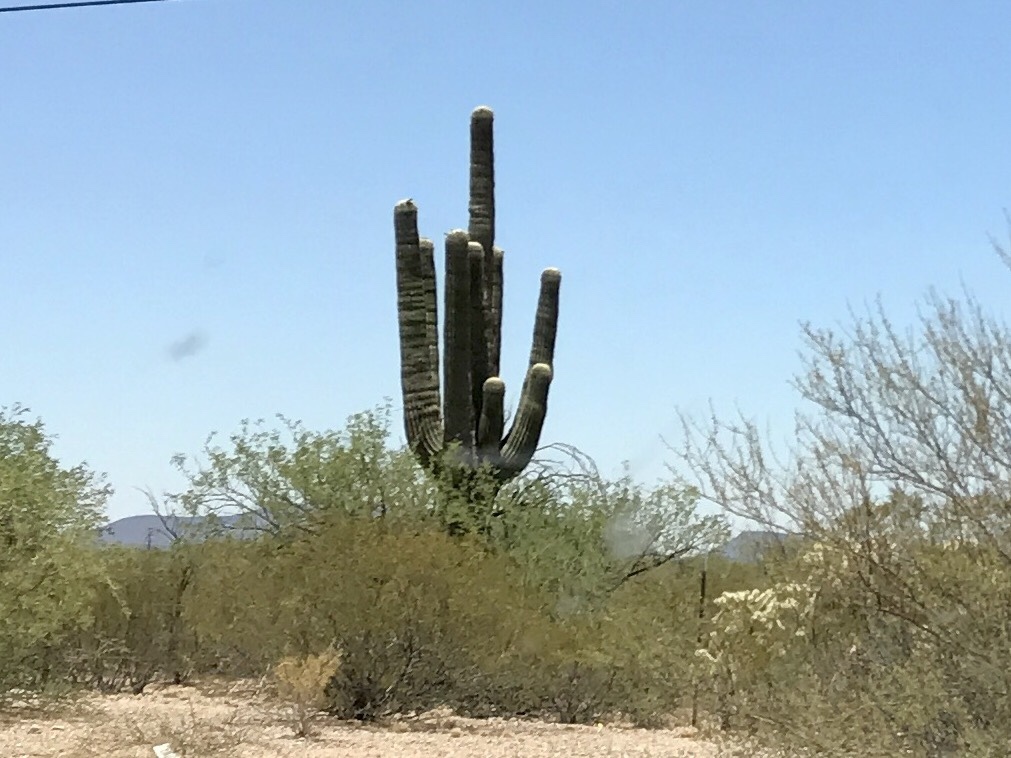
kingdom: Plantae
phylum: Tracheophyta
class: Magnoliopsida
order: Caryophyllales
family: Cactaceae
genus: Carnegiea
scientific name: Carnegiea gigantea
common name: Saguaro
